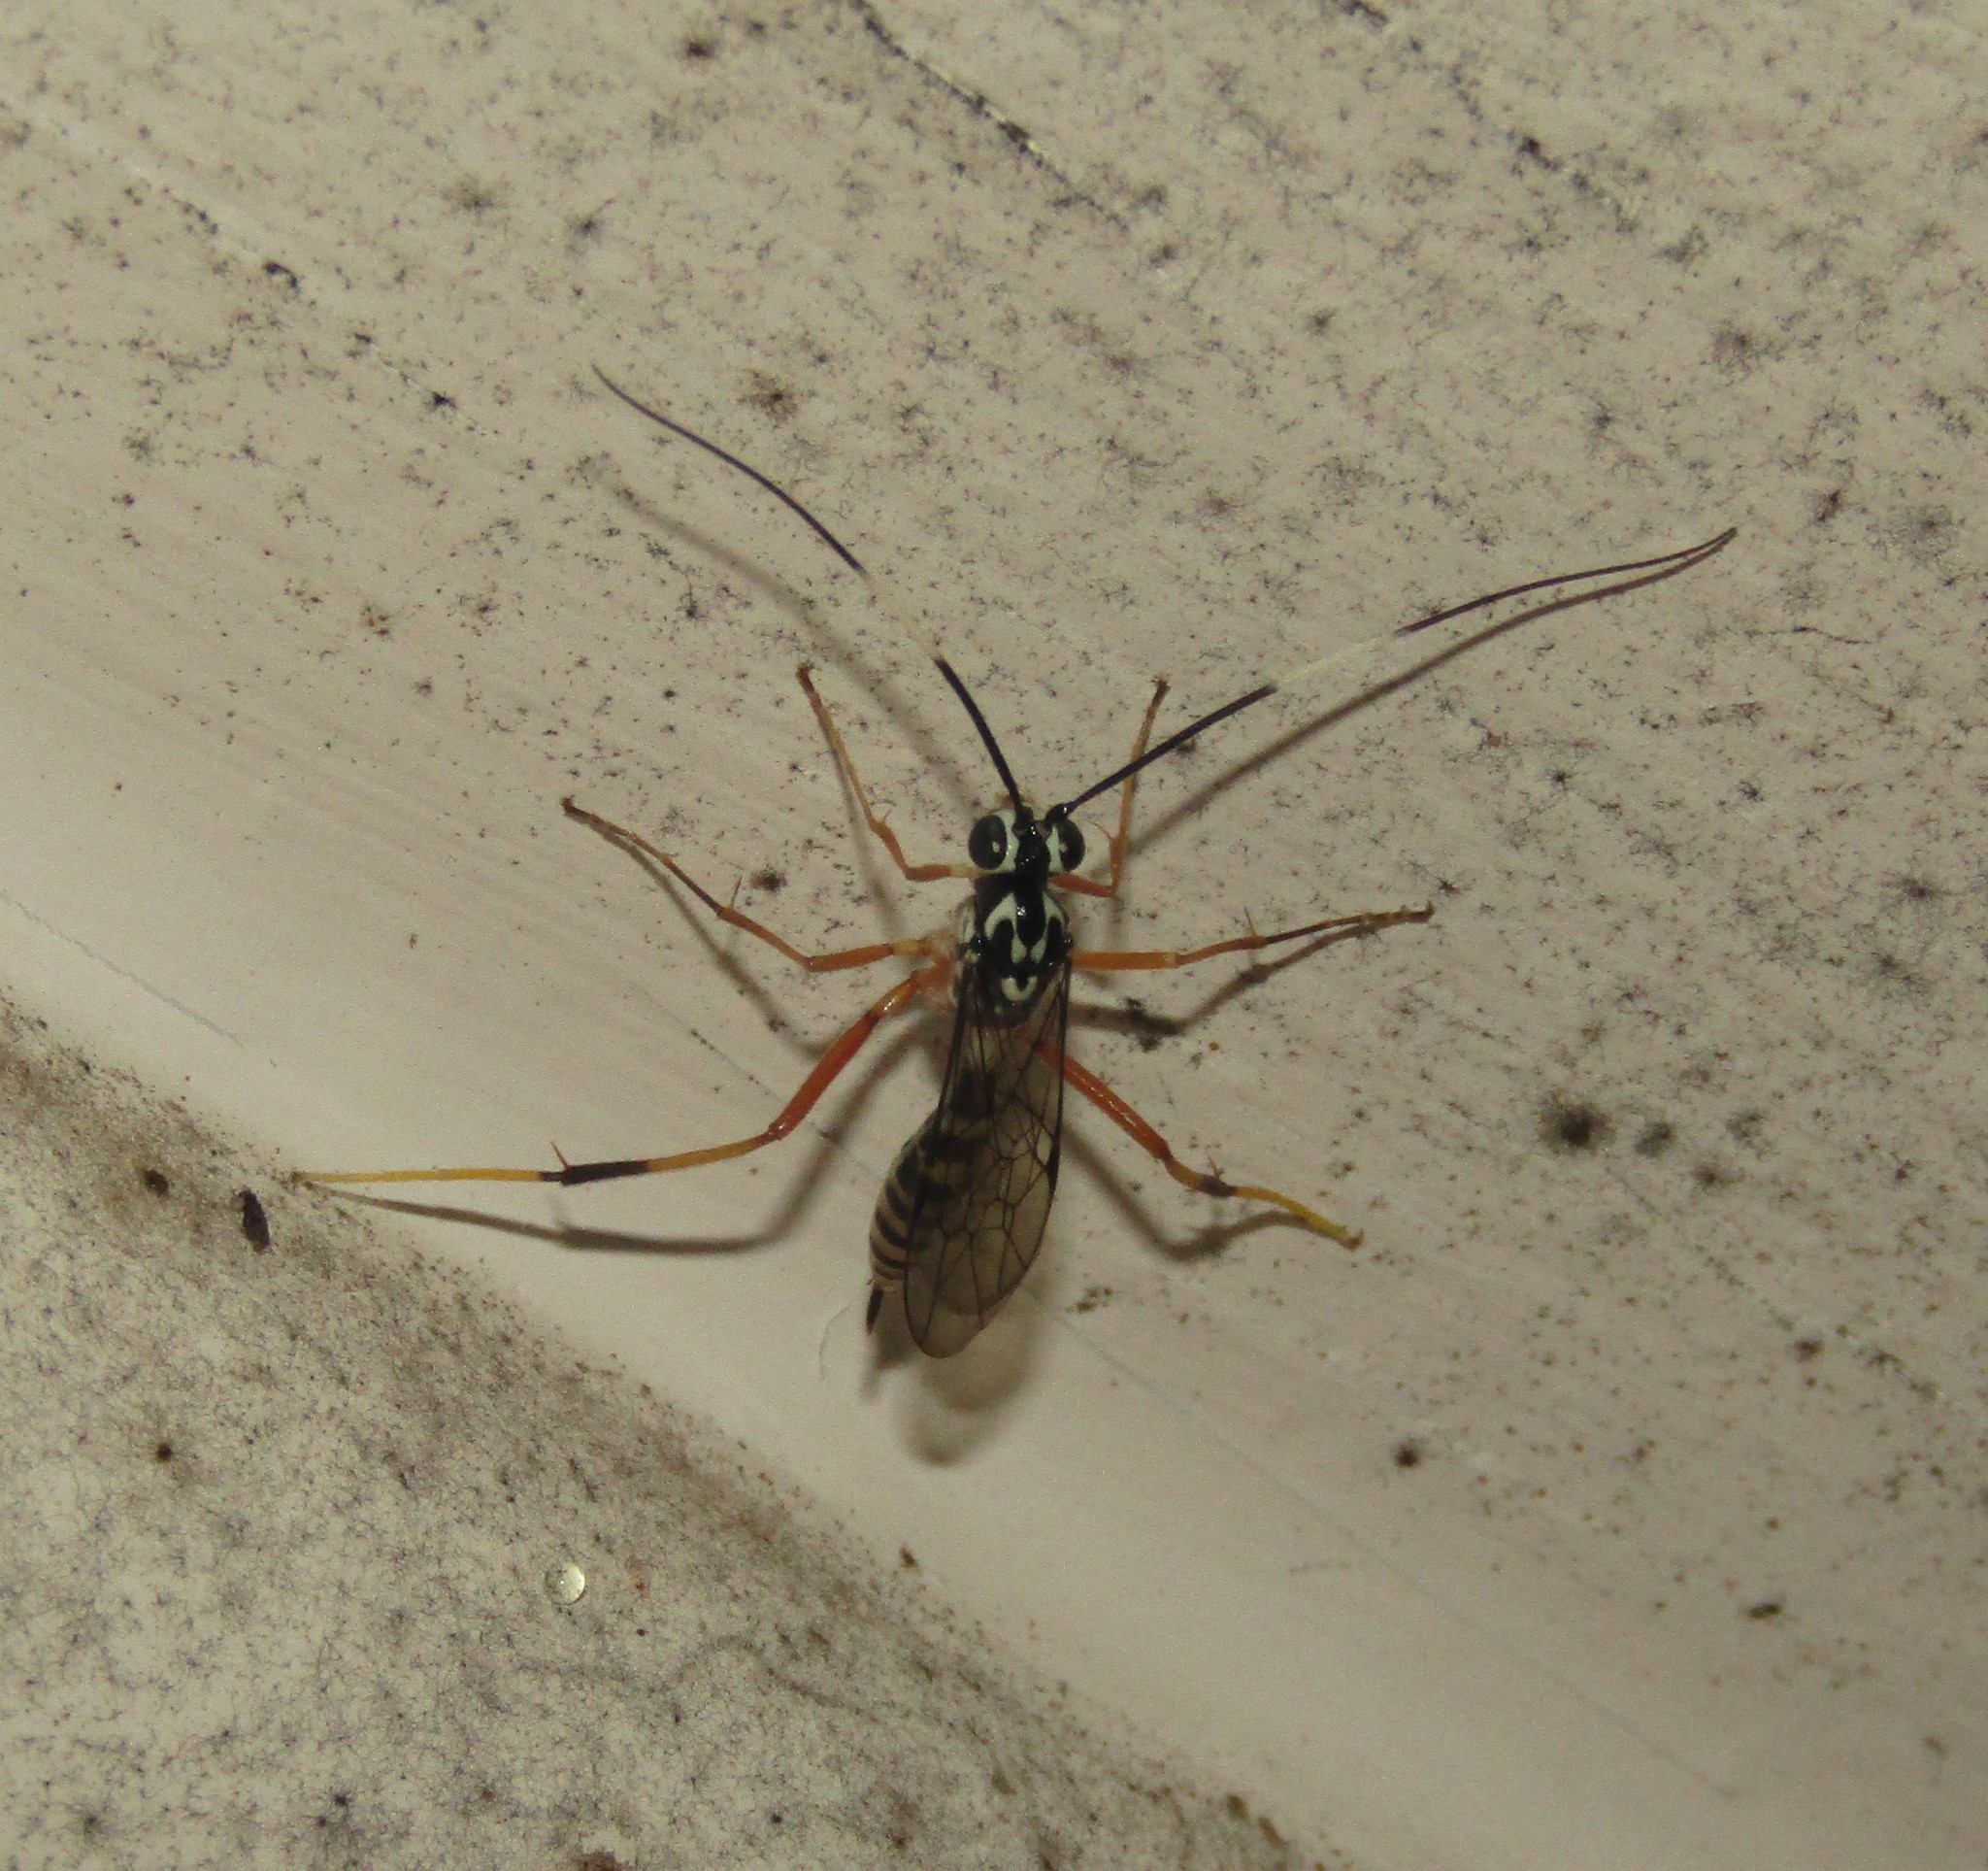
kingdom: Animalia
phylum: Arthropoda
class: Insecta
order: Hymenoptera
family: Ichneumonidae
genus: Diradops
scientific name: Diradops bethunei
